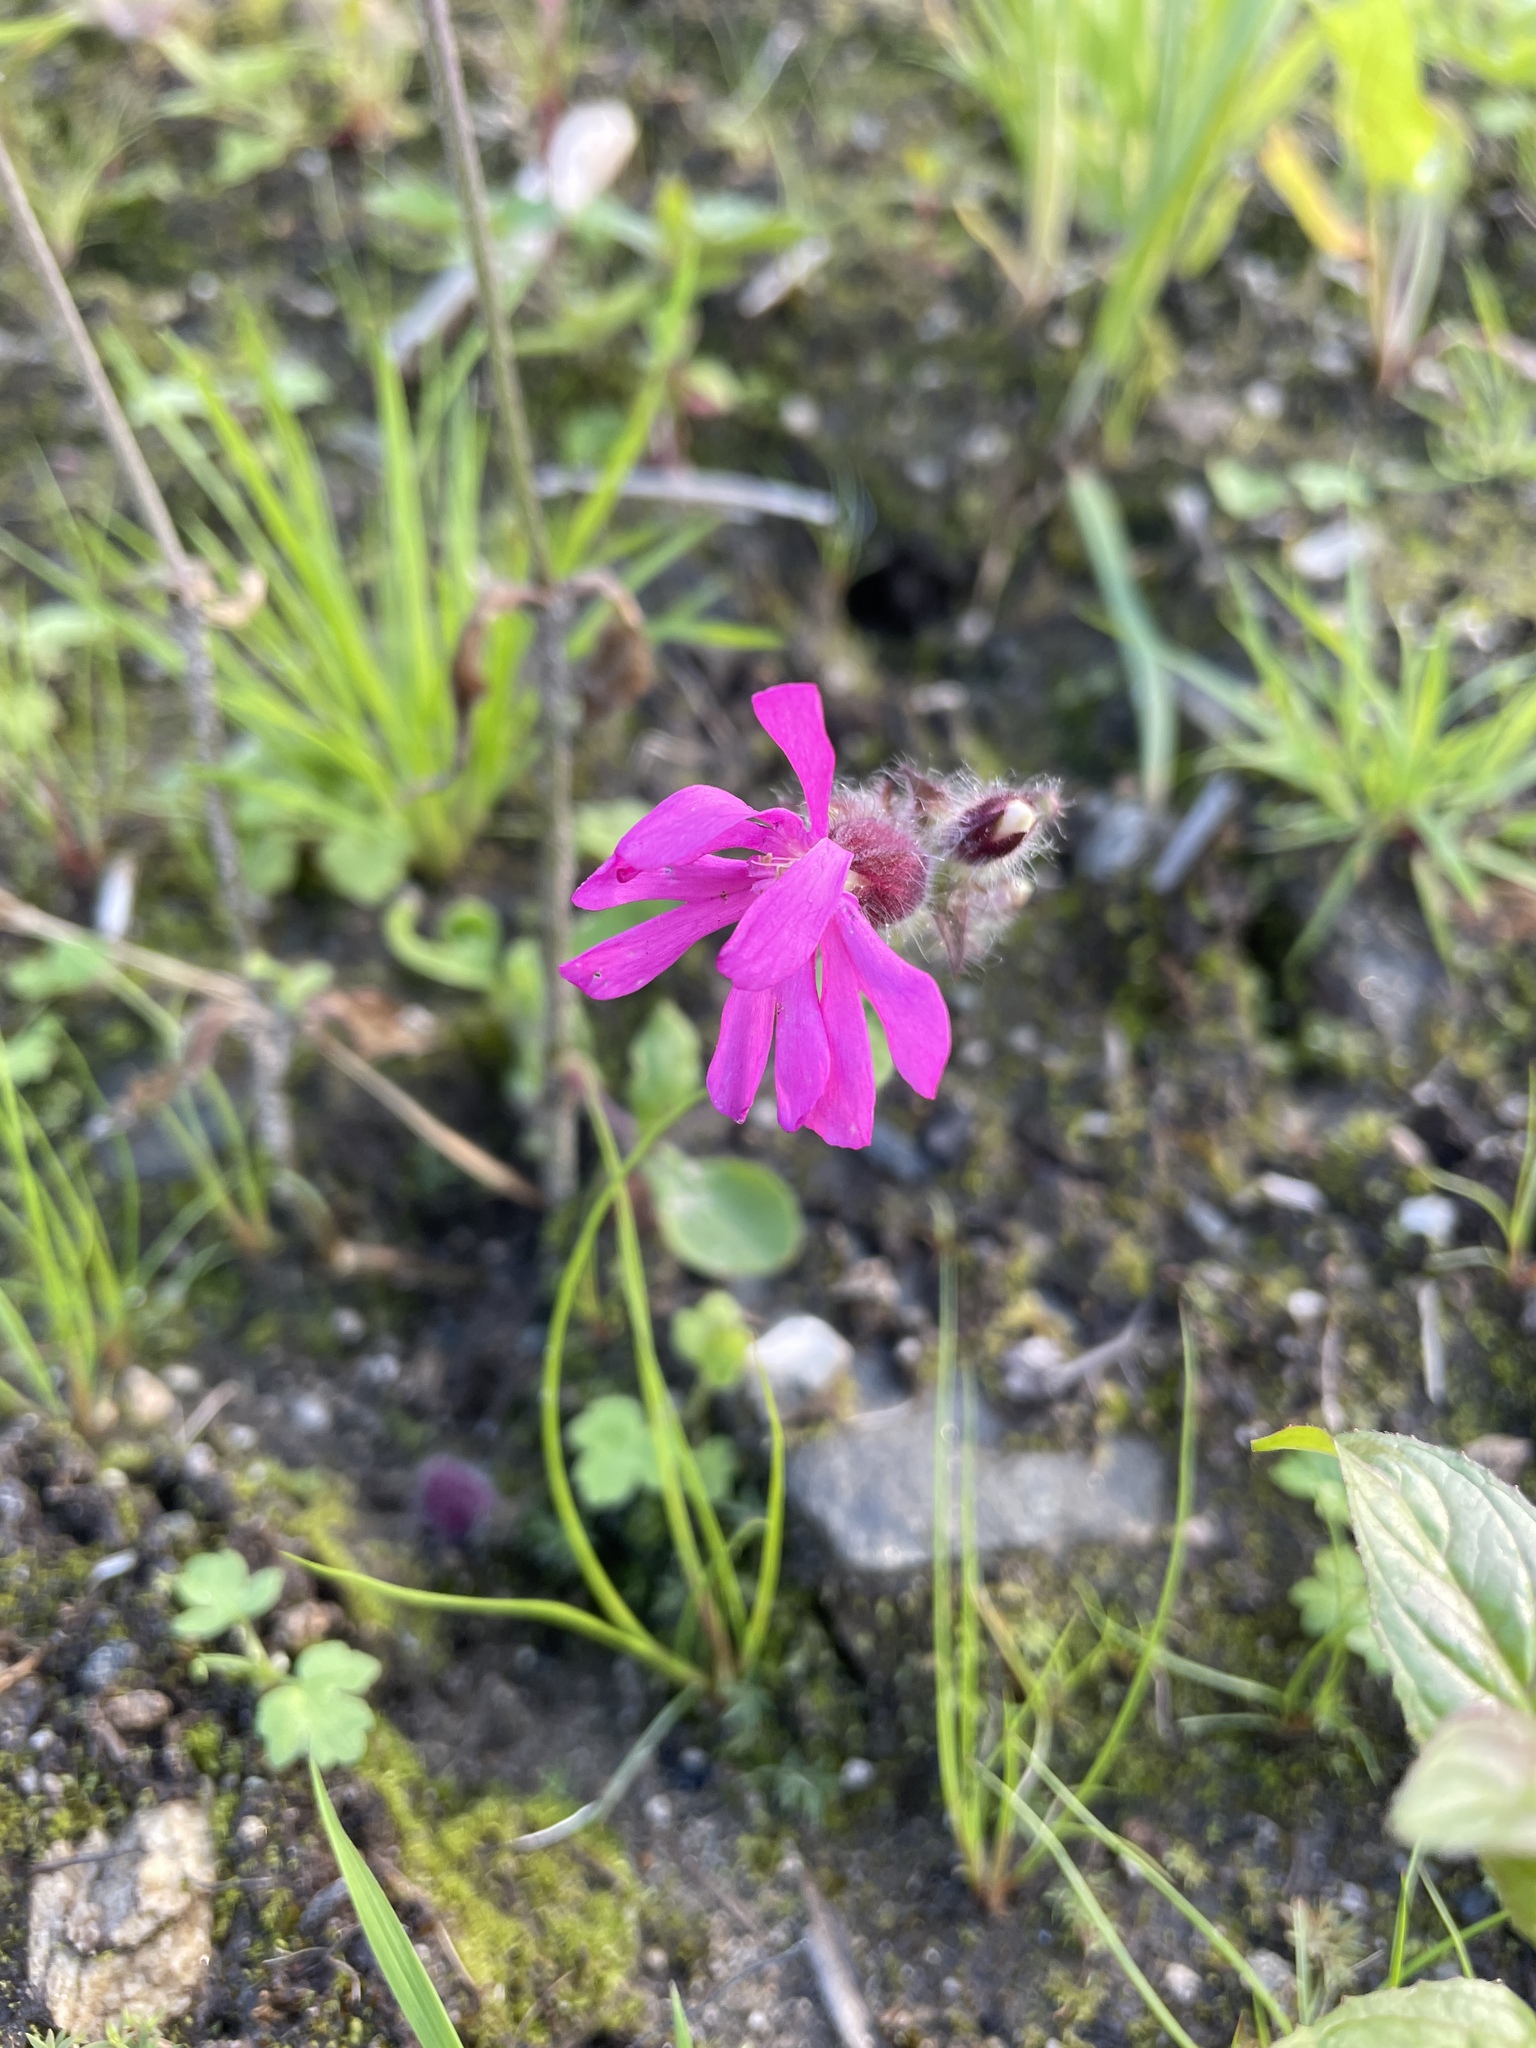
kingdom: Plantae
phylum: Tracheophyta
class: Magnoliopsida
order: Caryophyllales
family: Caryophyllaceae
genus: Silene
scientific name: Silene dioica
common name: Red campion
